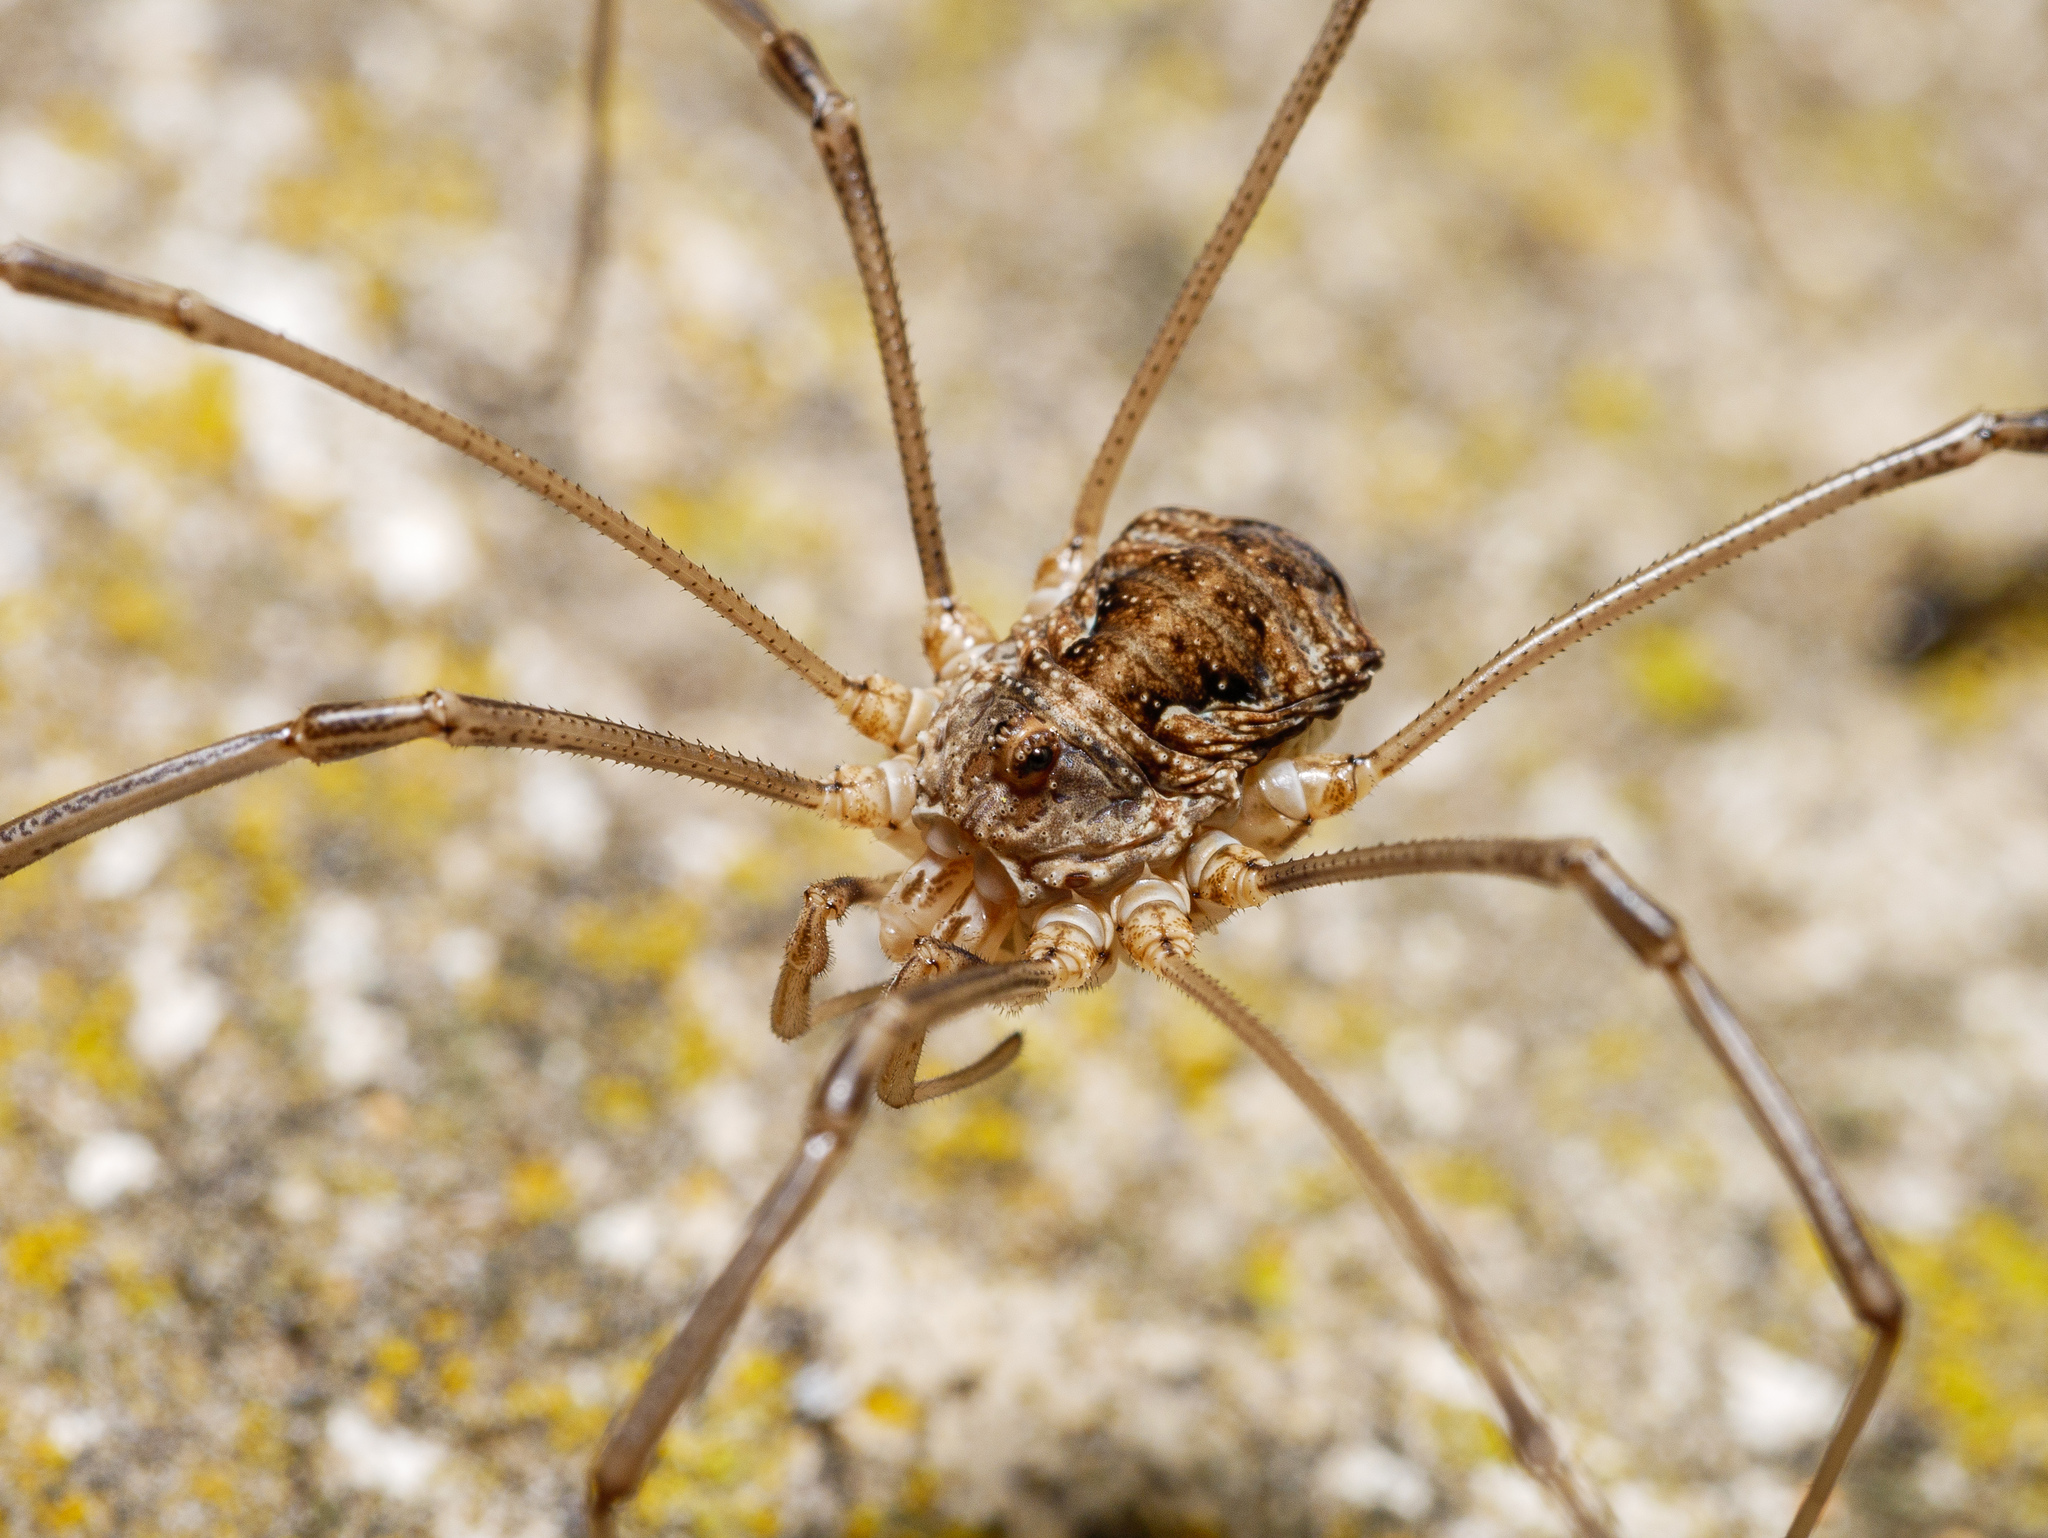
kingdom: Animalia
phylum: Arthropoda
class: Arachnida
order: Opiliones
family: Phalangiidae
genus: Phalangium
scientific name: Phalangium opilio
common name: Daddy longleg
